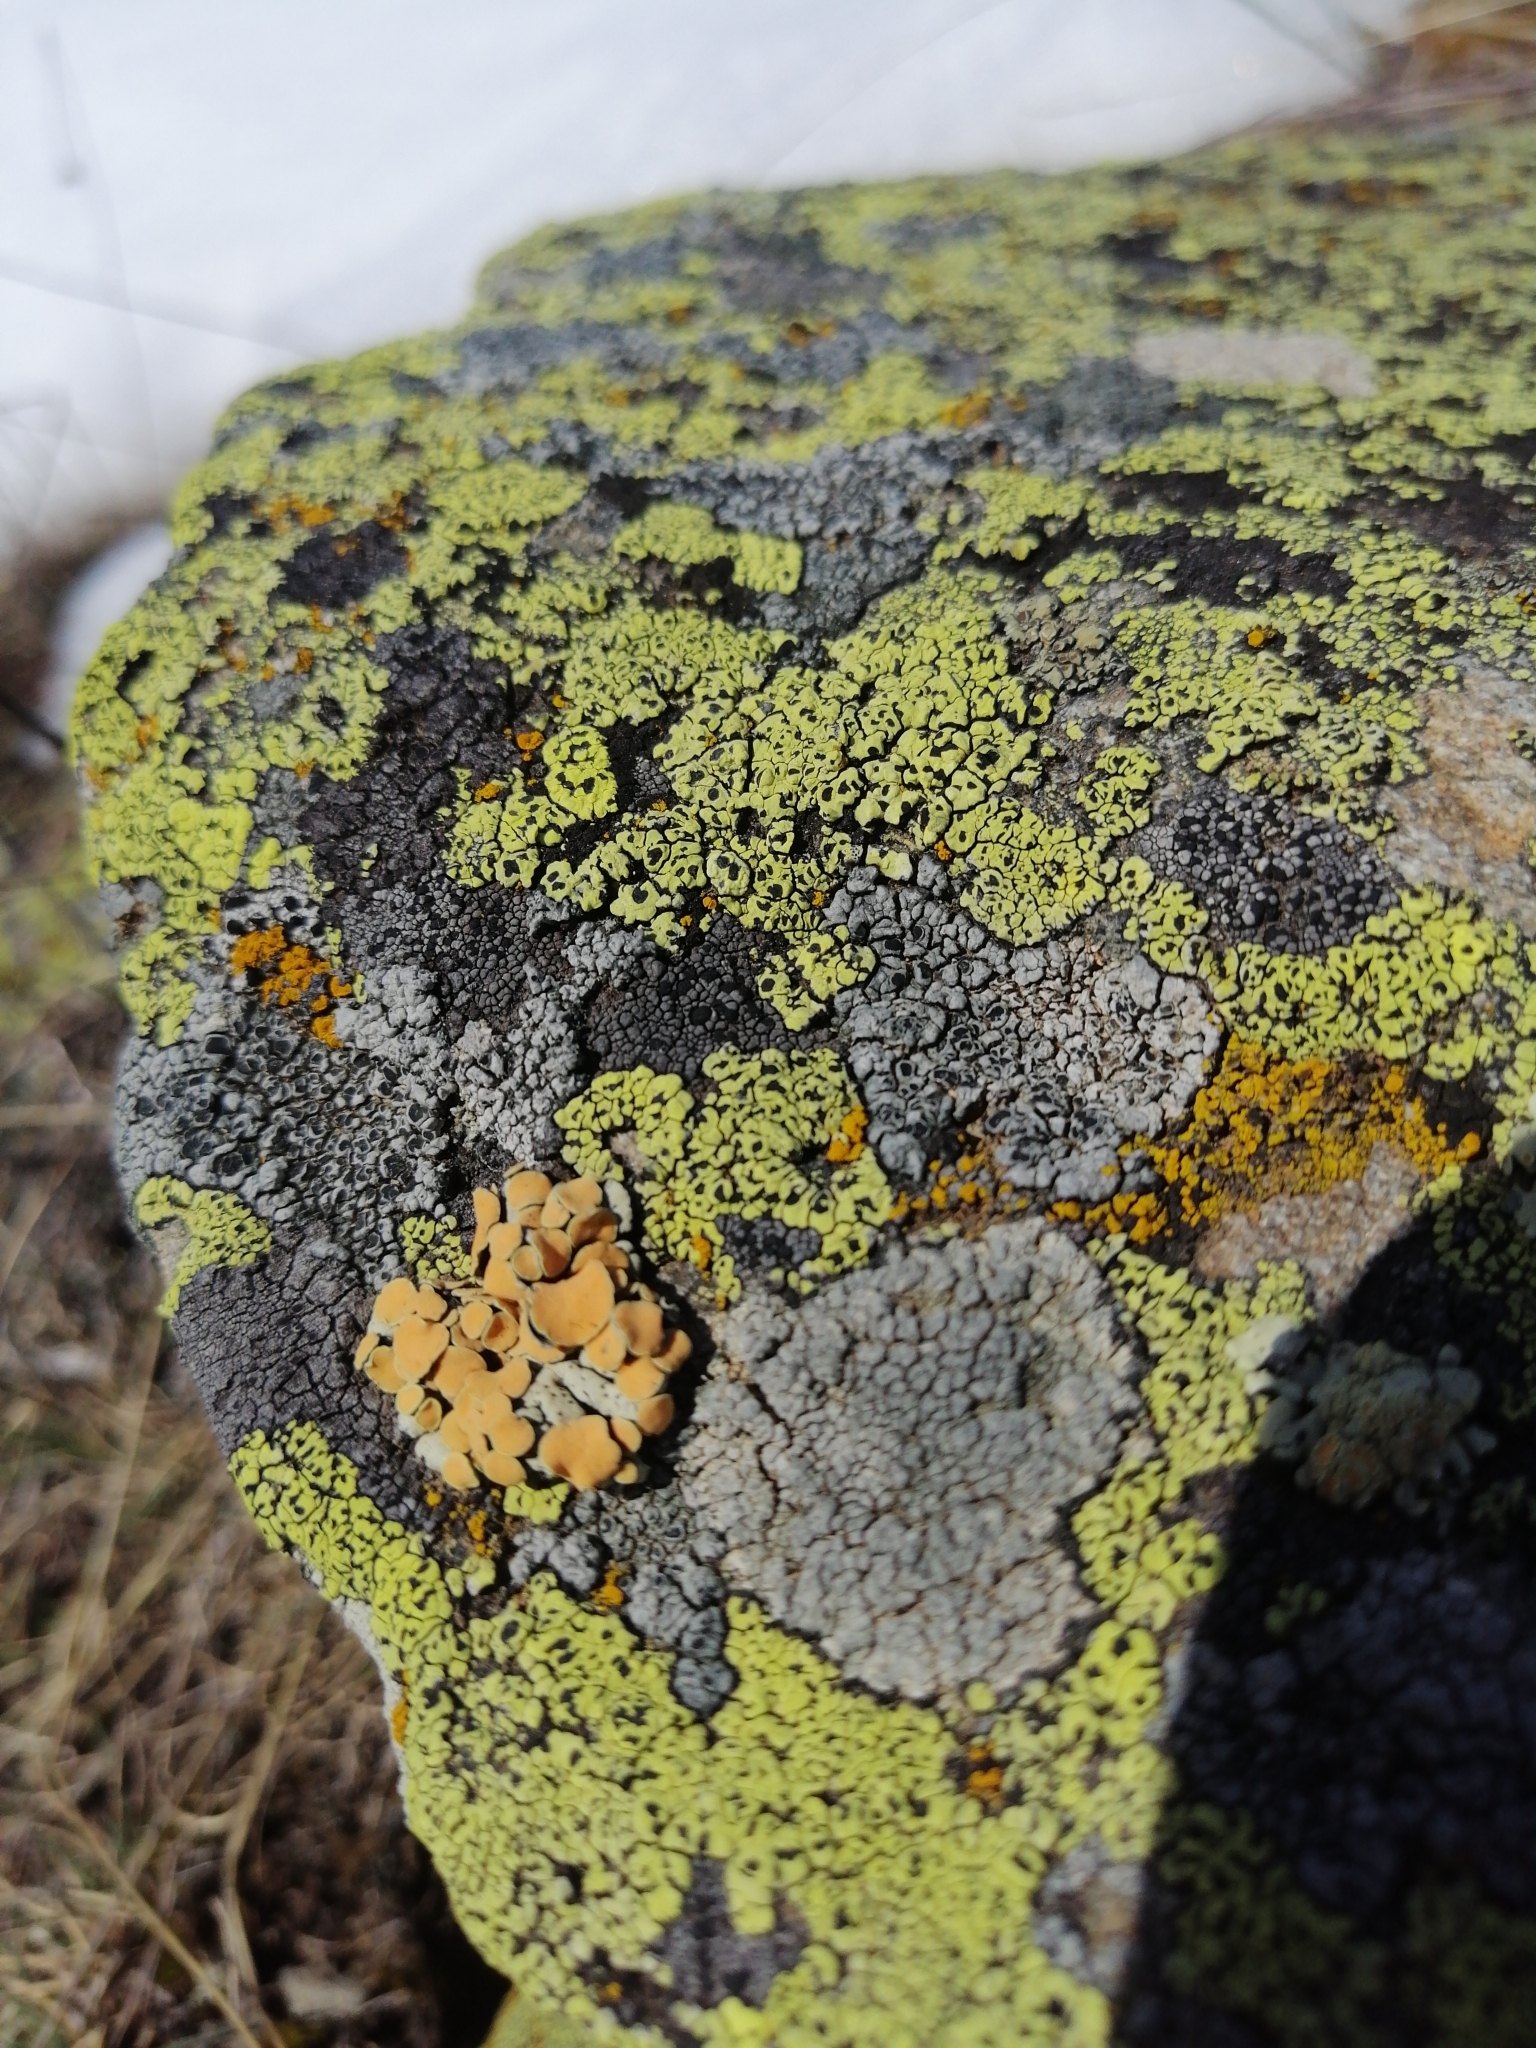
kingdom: Fungi
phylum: Ascomycota
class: Lecanoromycetes
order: Lecanorales
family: Lecanoraceae
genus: Omphalodina
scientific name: Omphalodina chrysoleuca
